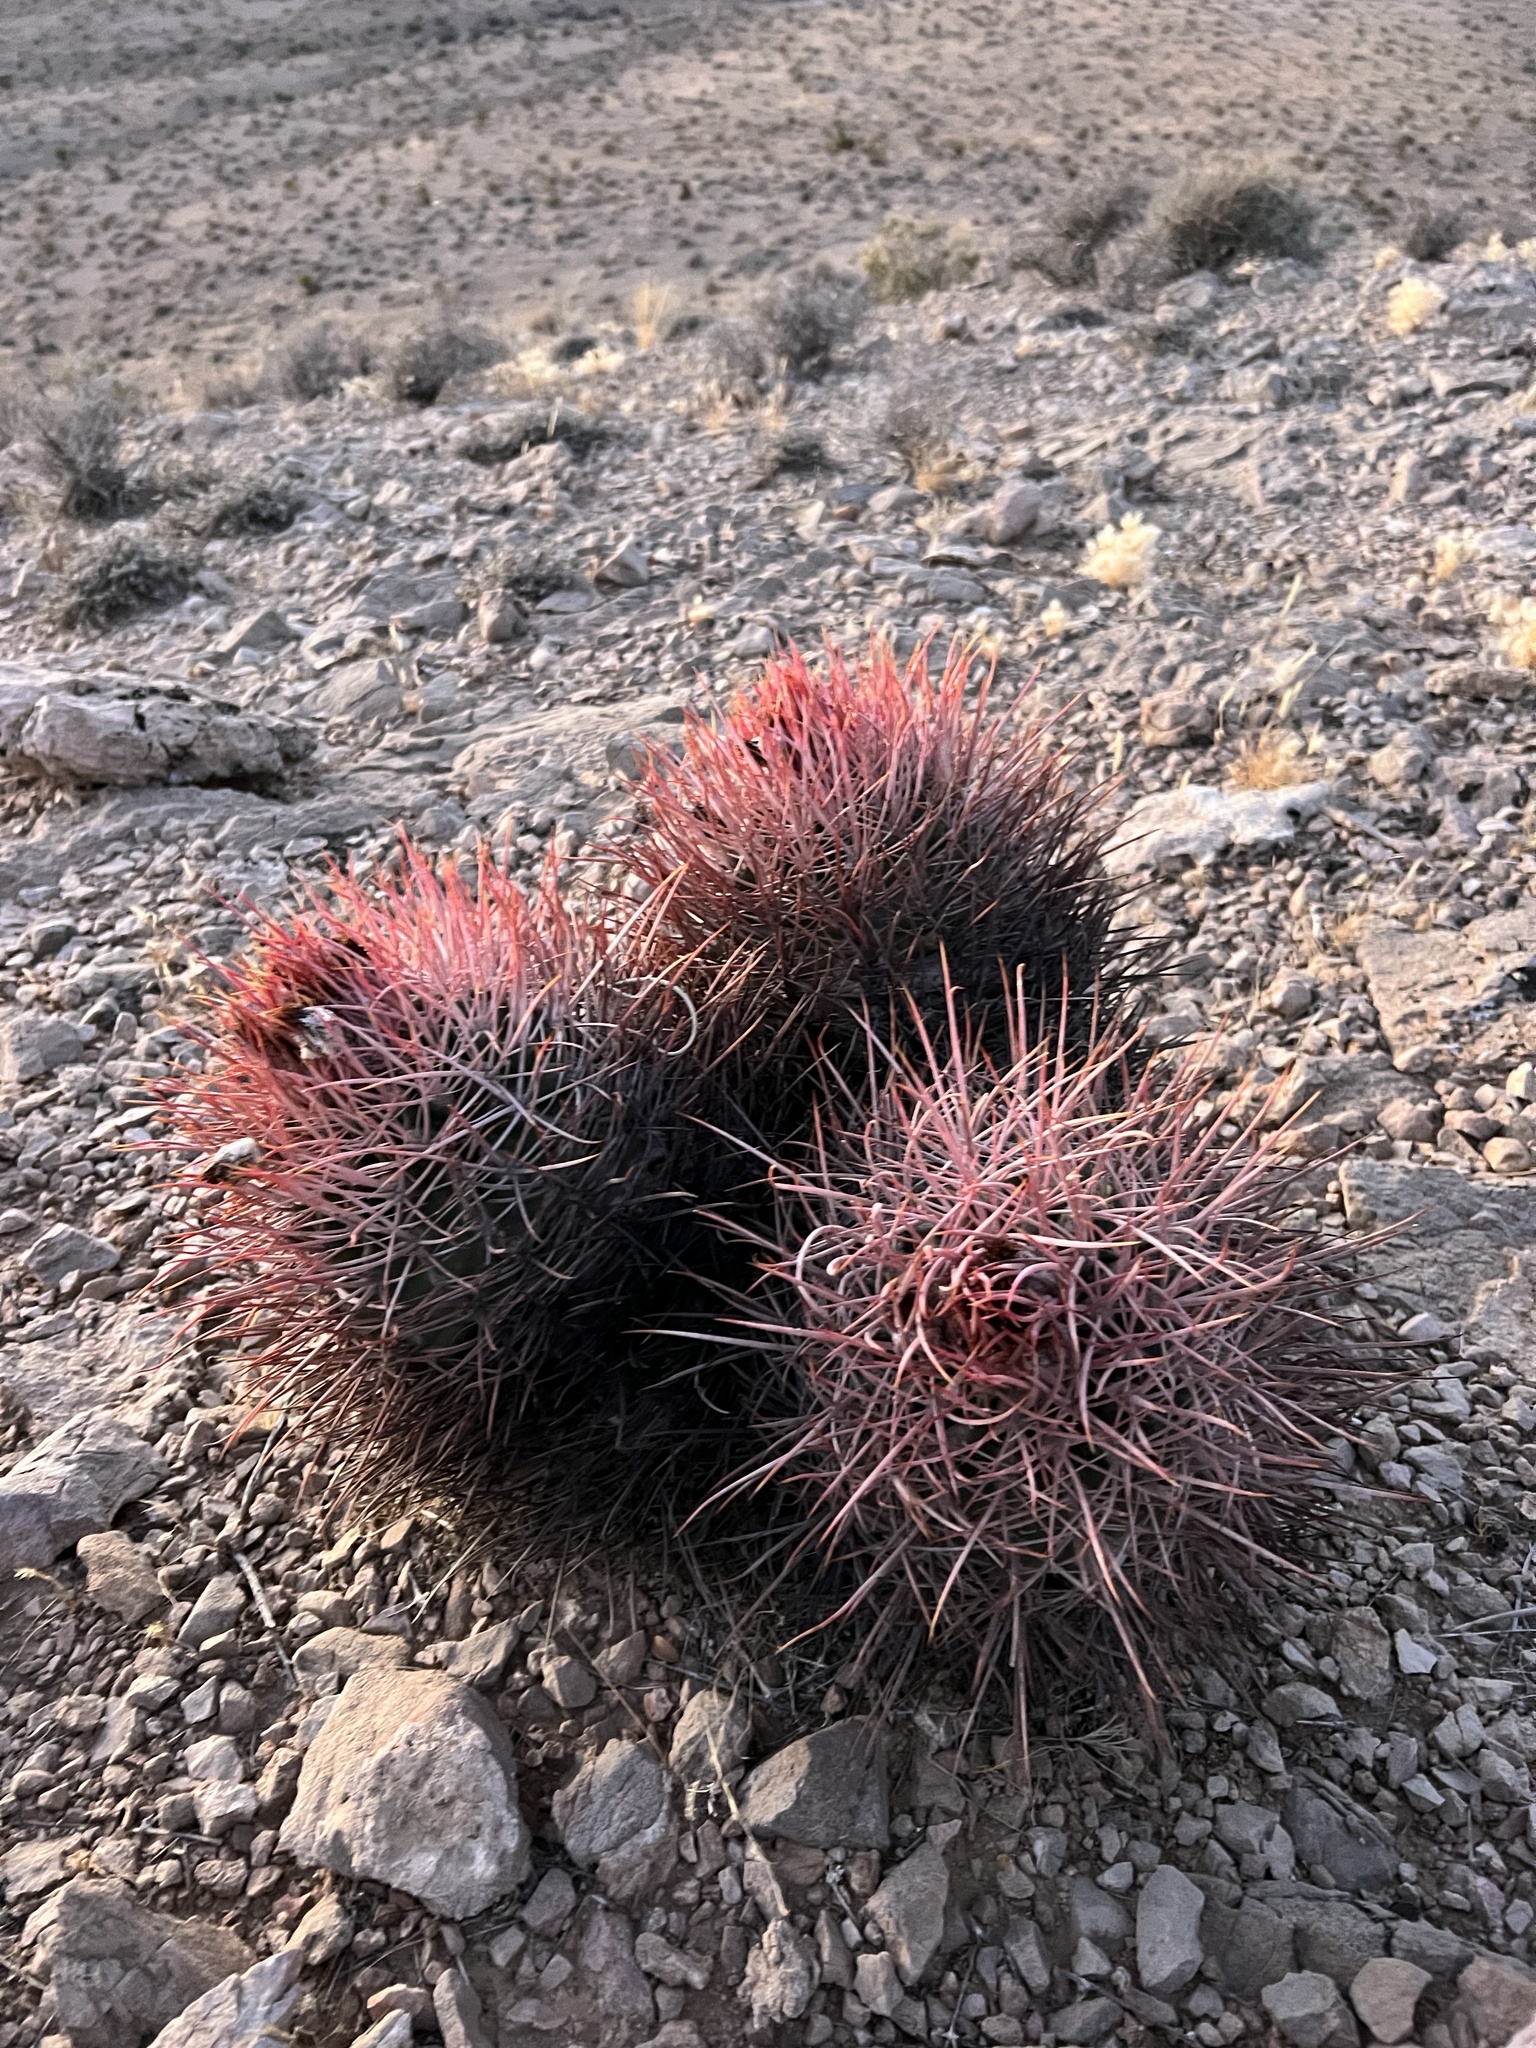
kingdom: Plantae
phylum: Tracheophyta
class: Magnoliopsida
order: Caryophyllales
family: Cactaceae
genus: Echinocactus
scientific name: Echinocactus polycephalus
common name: Cottontop cactus
